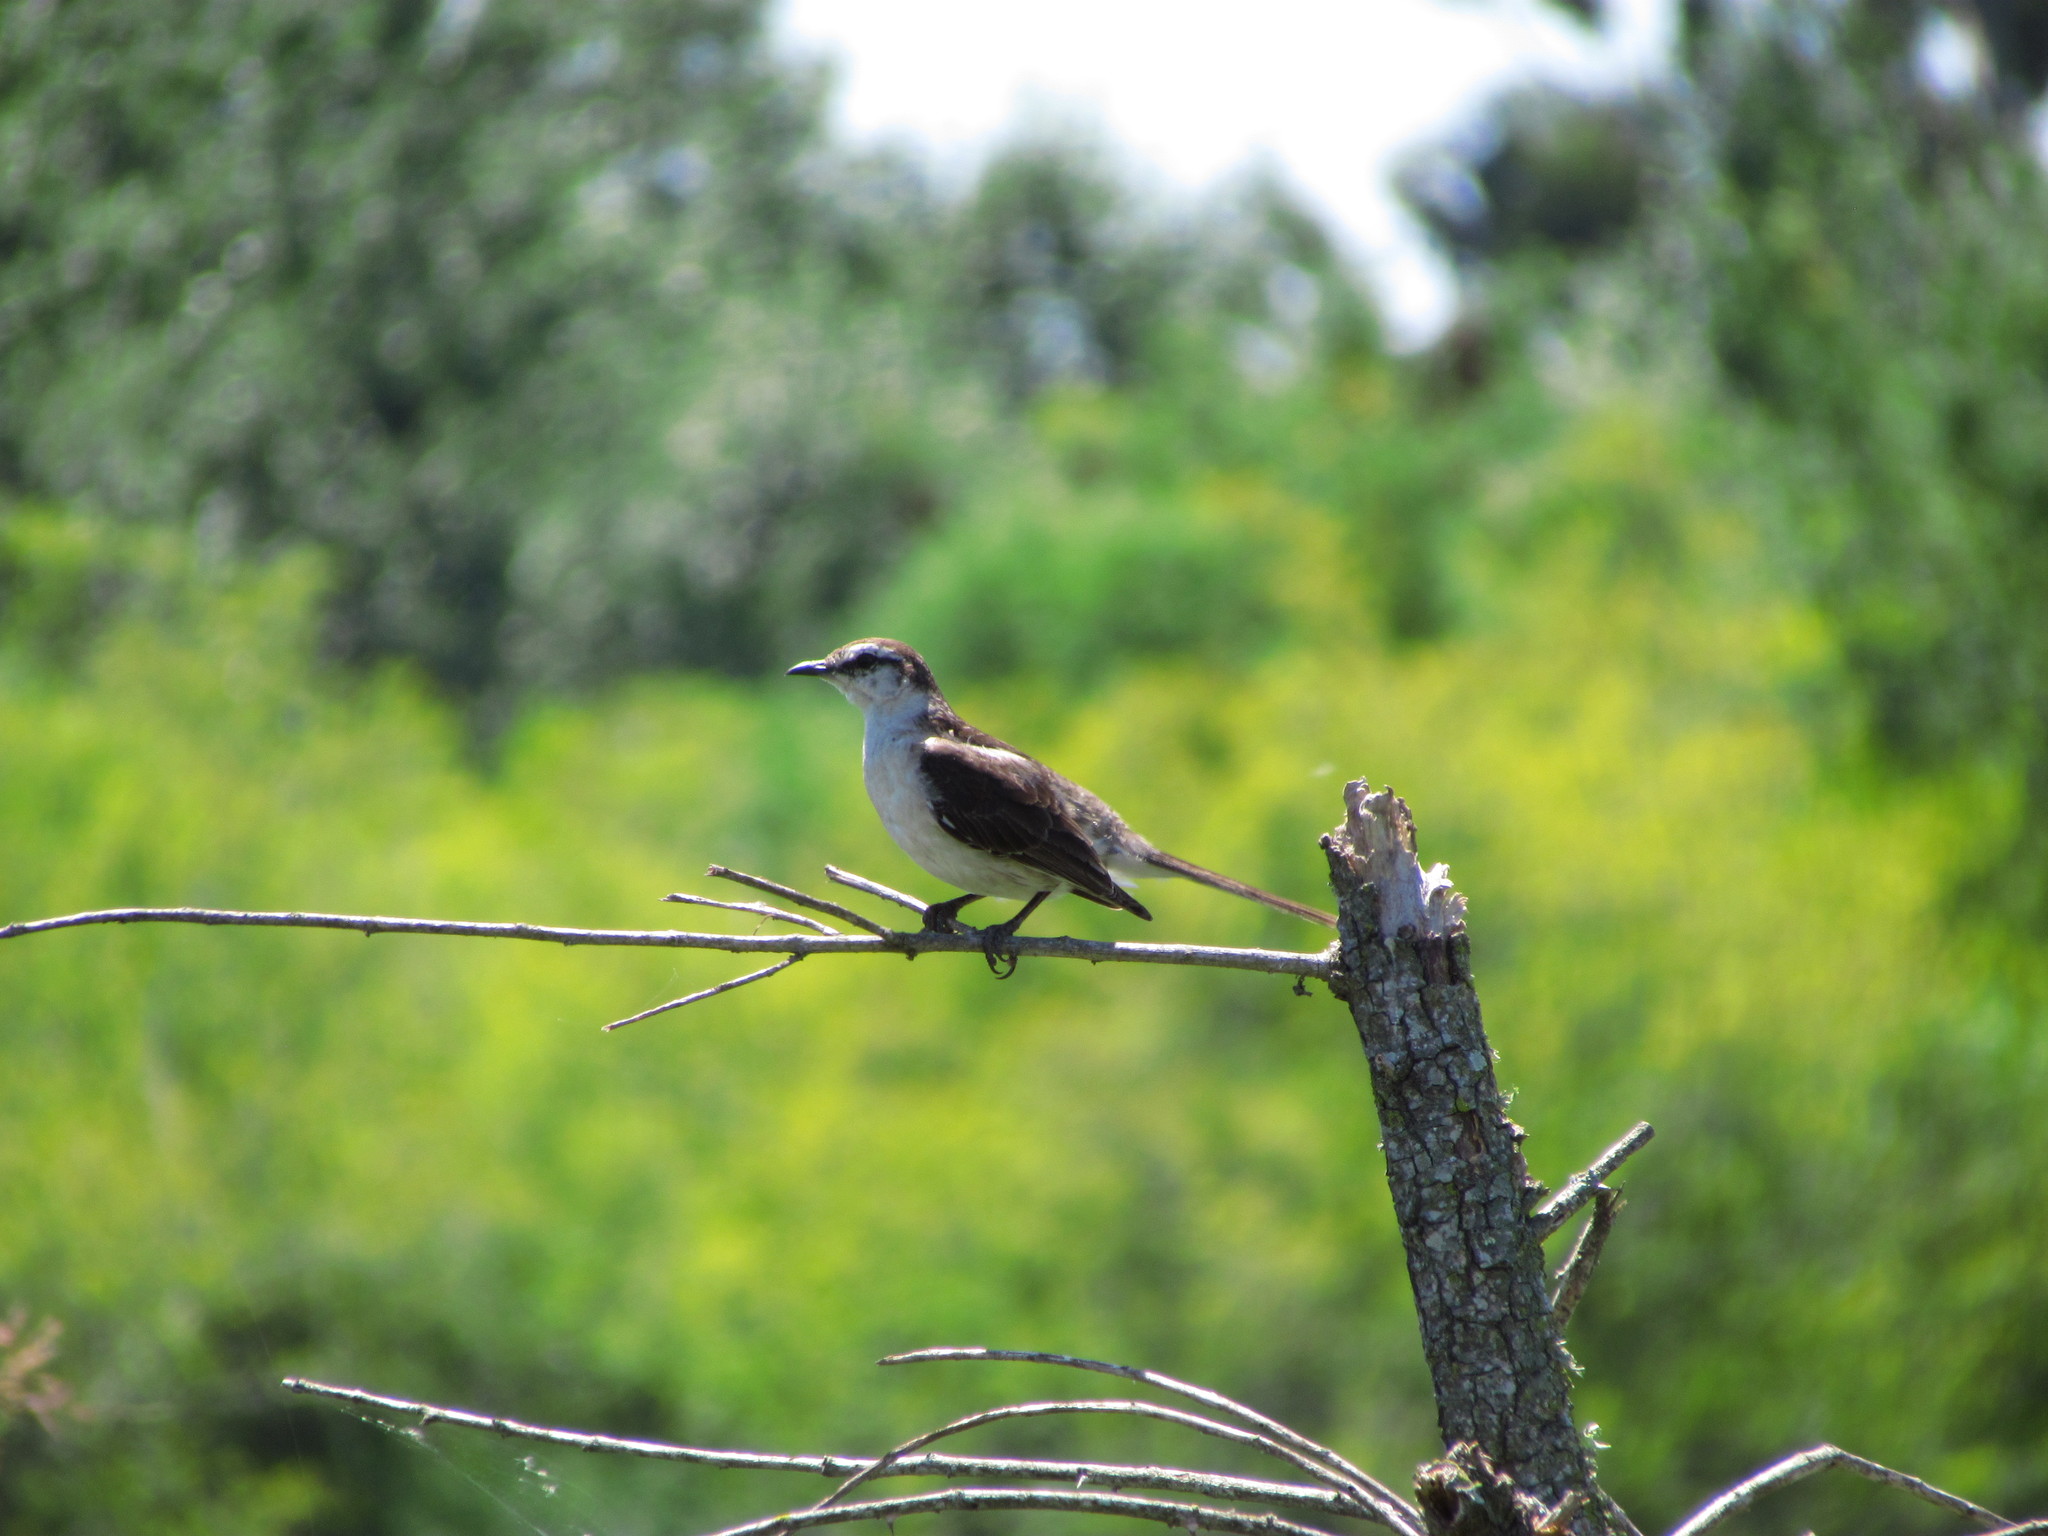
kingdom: Animalia
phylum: Chordata
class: Aves
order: Passeriformes
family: Mimidae
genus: Mimus
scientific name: Mimus saturninus
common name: Chalk-browed mockingbird
